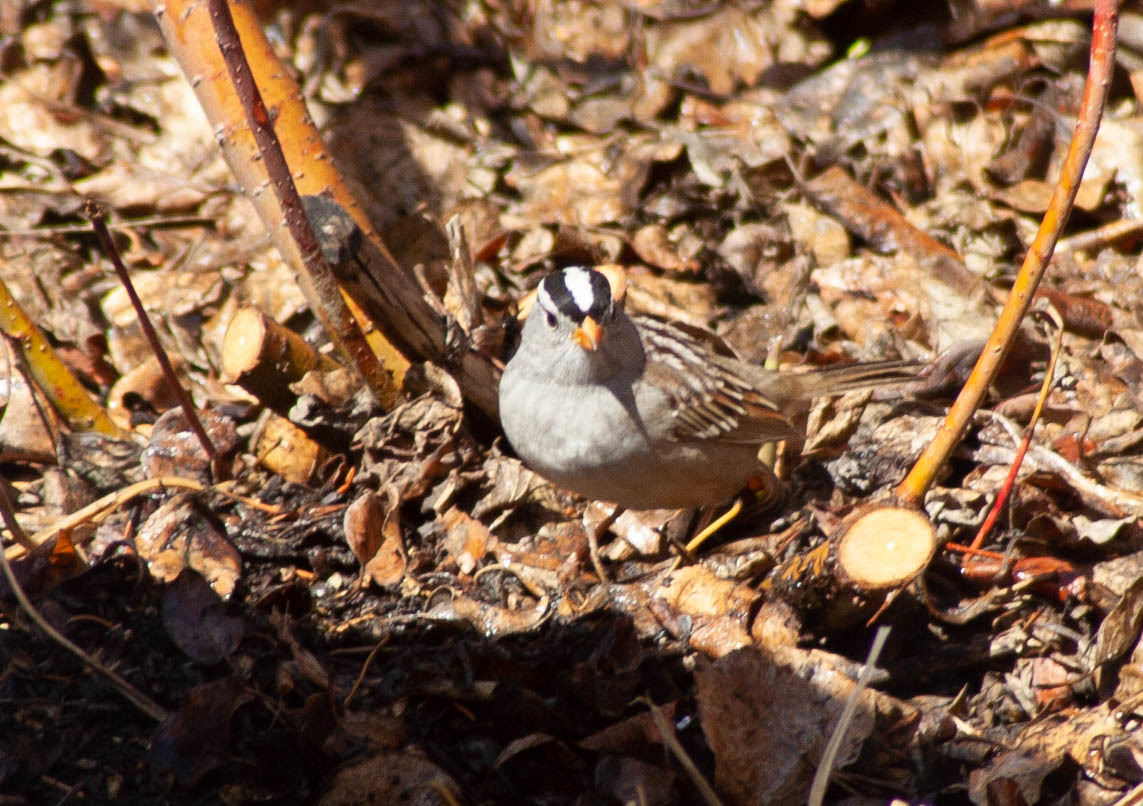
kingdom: Animalia
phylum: Chordata
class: Aves
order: Passeriformes
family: Passerellidae
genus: Zonotrichia
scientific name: Zonotrichia leucophrys
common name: White-crowned sparrow
